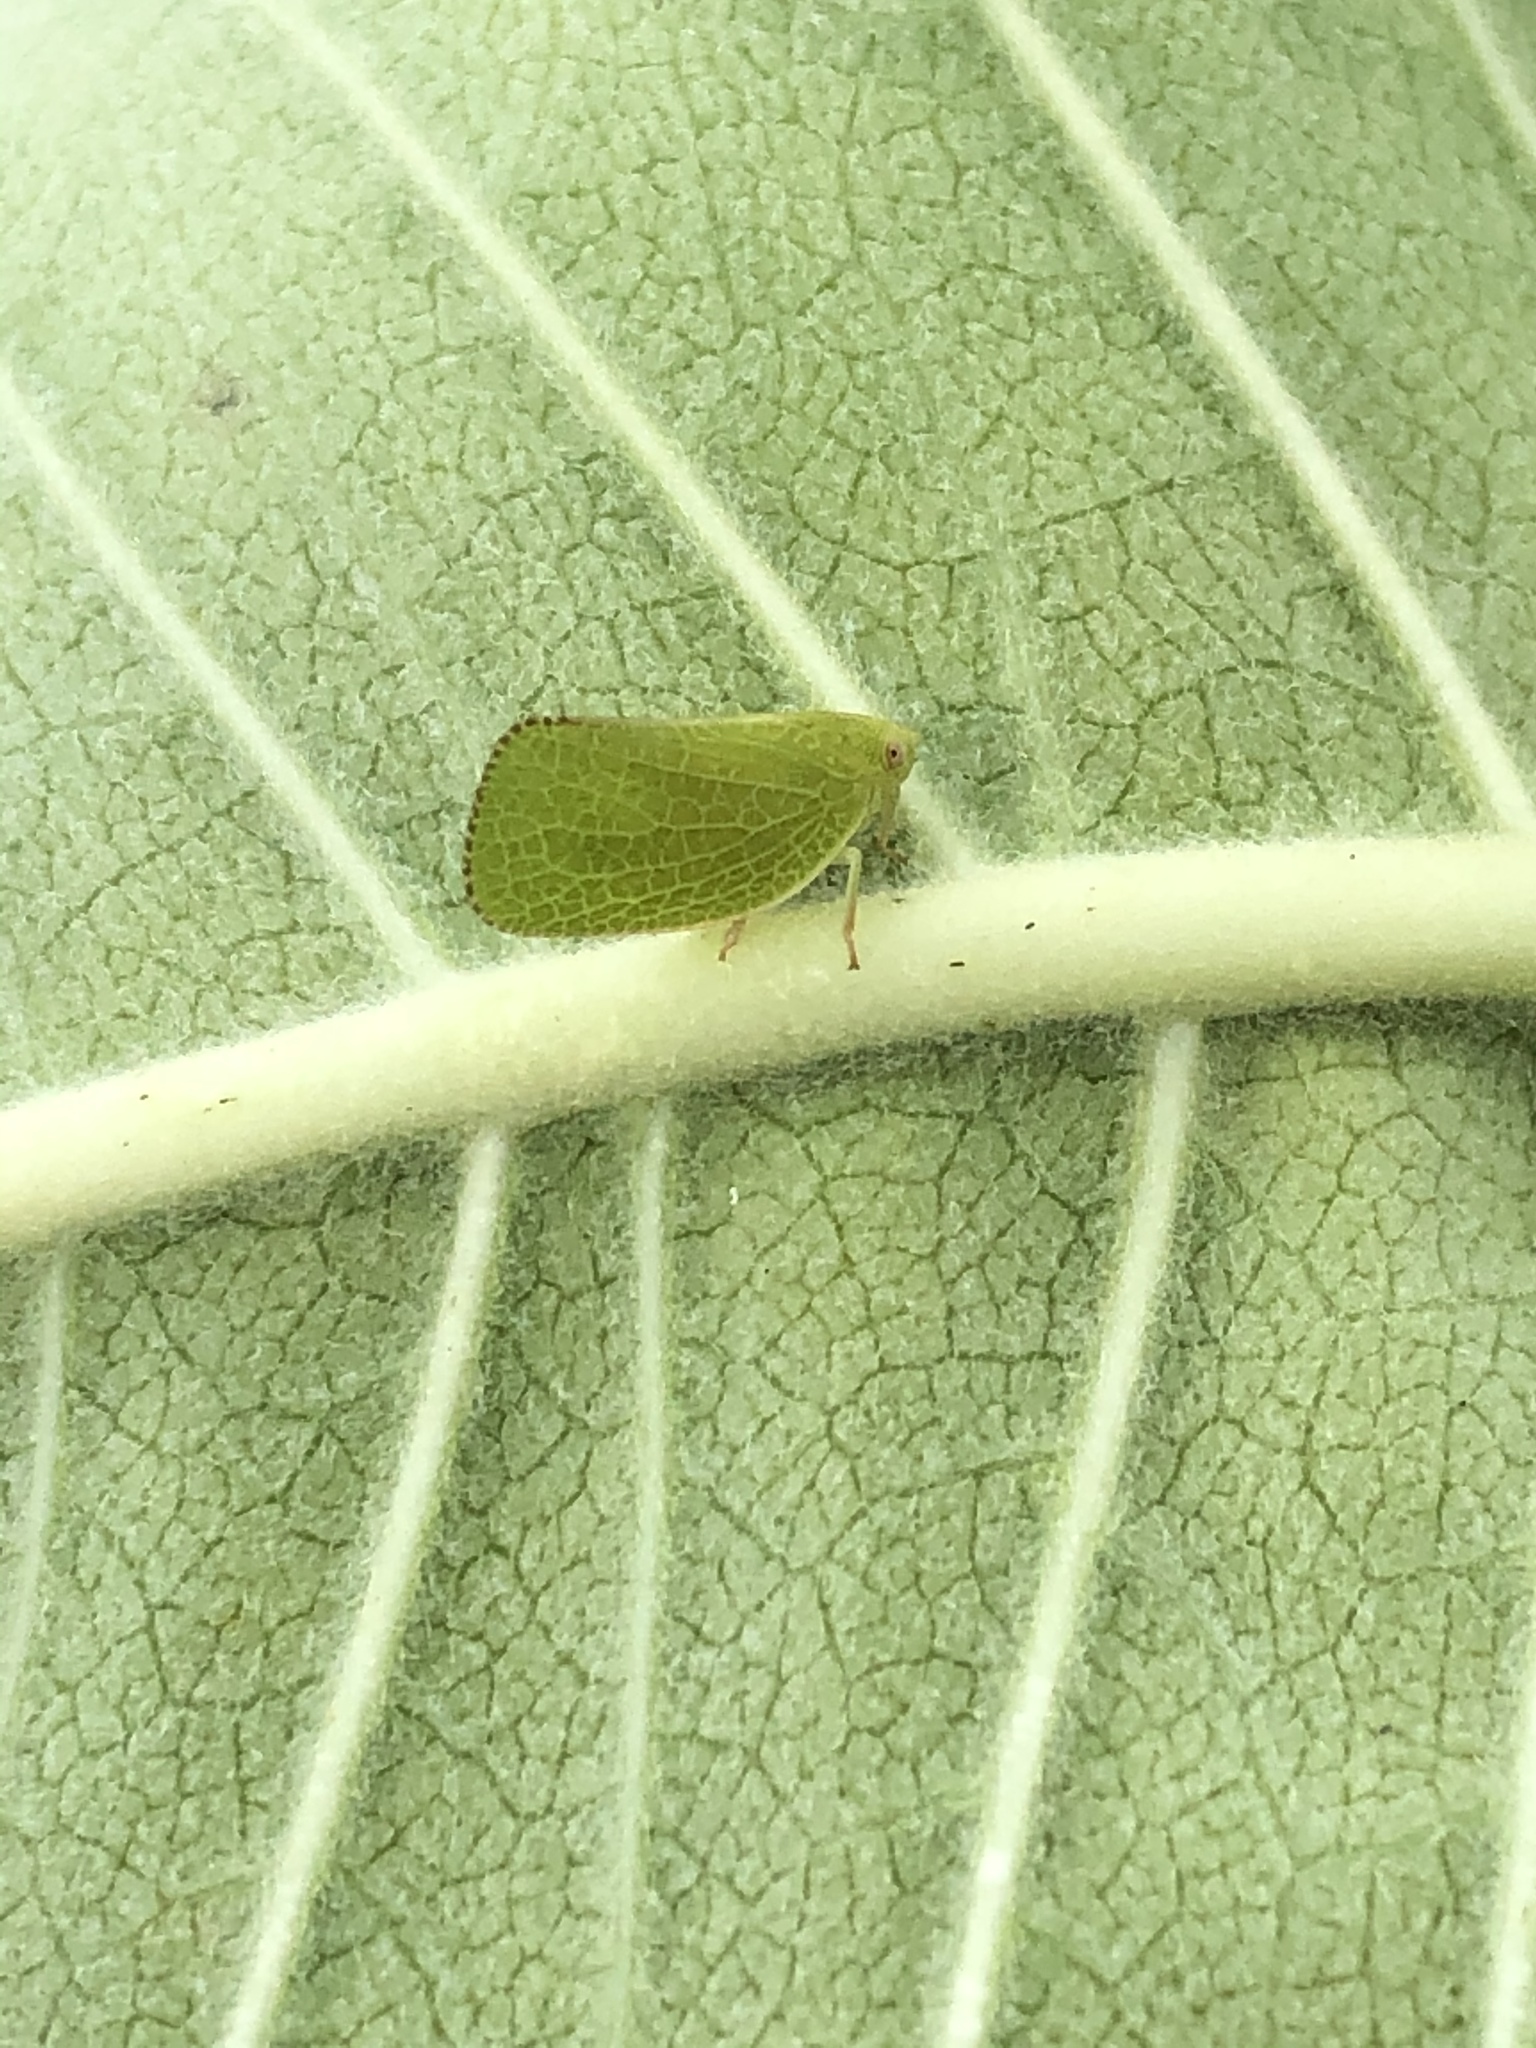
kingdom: Animalia
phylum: Arthropoda
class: Insecta
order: Hemiptera
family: Acanaloniidae
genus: Acanalonia
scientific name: Acanalonia conica
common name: Green cone-headed planthopper
